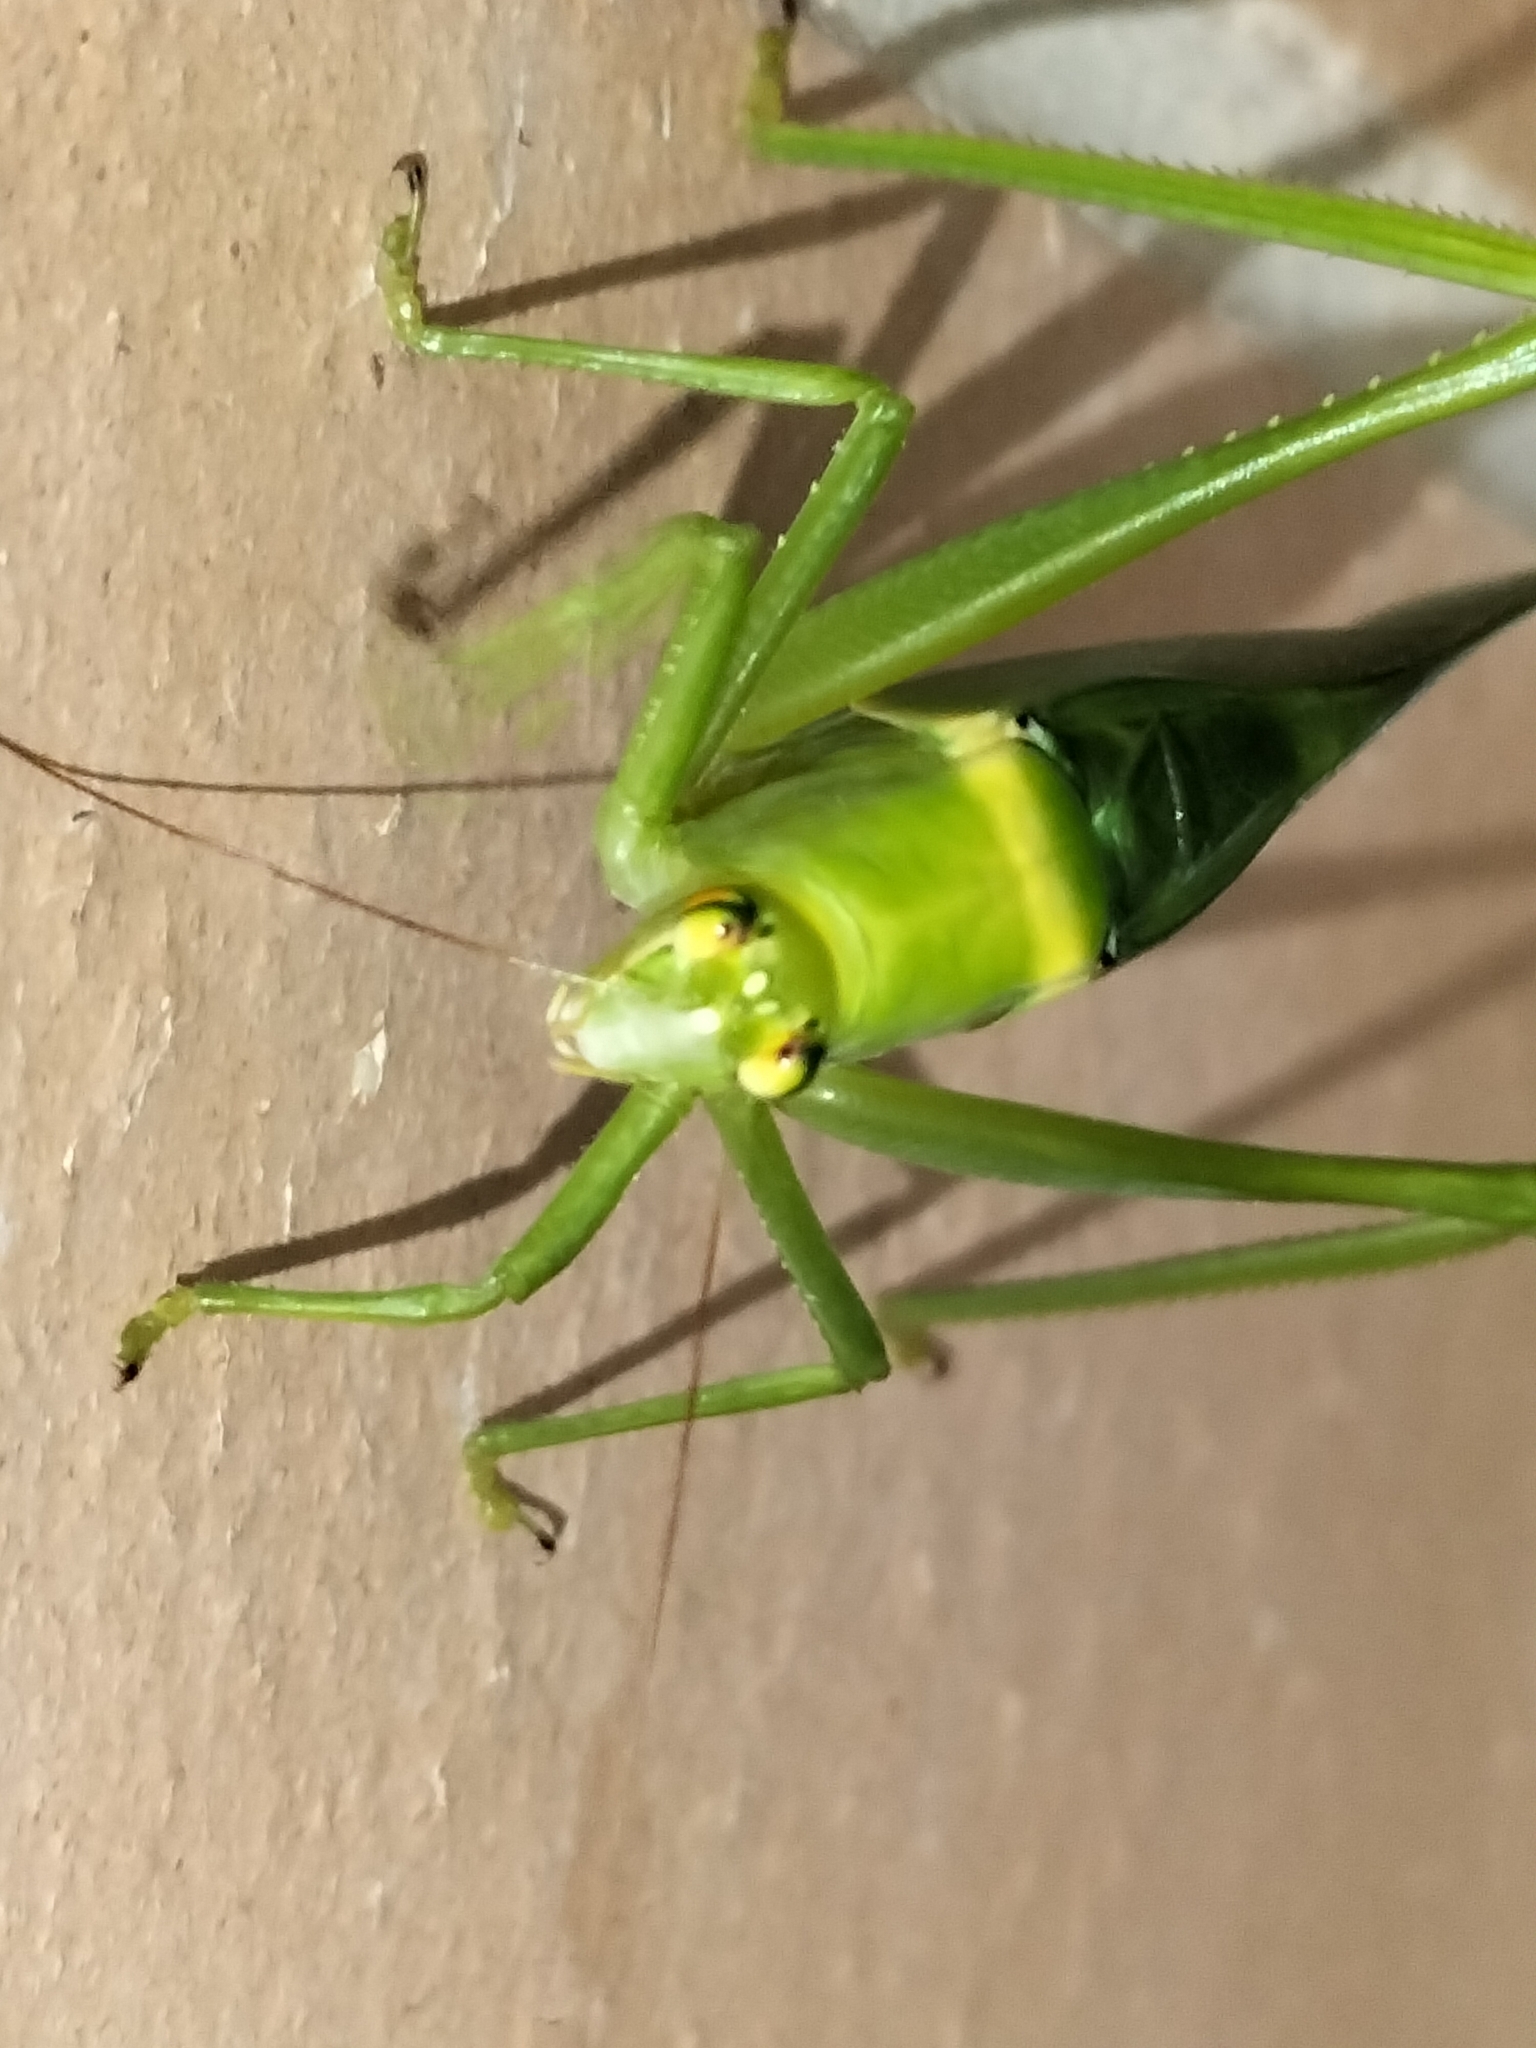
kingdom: Animalia
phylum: Arthropoda
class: Insecta
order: Orthoptera
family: Tettigoniidae
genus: Paracaedicia
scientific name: Paracaedicia serrata
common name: Serrated bush katydid
